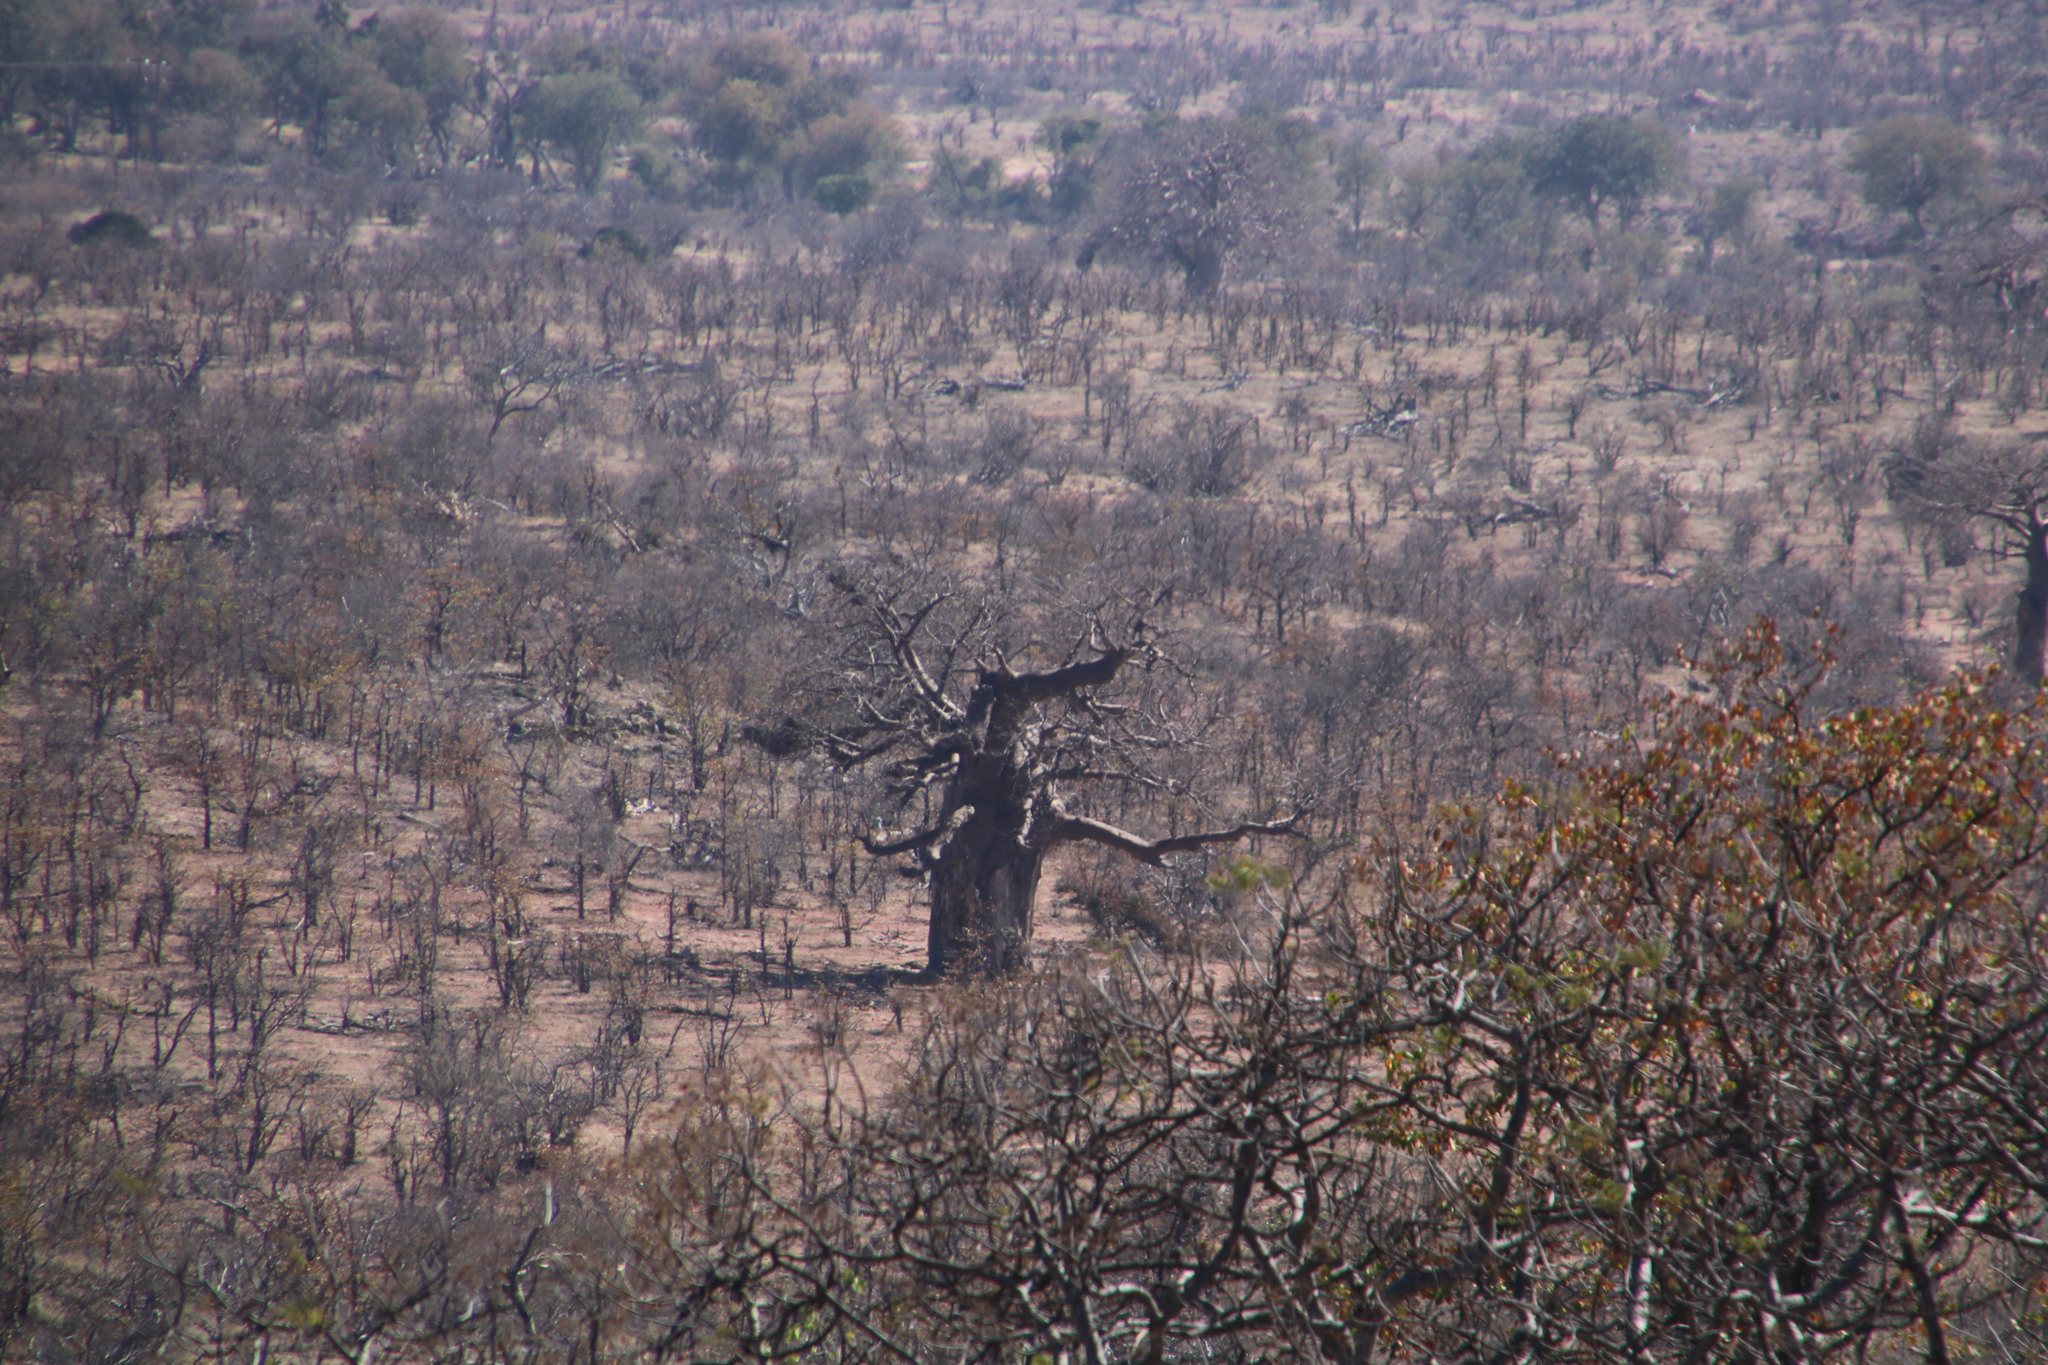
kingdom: Plantae
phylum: Tracheophyta
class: Magnoliopsida
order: Malvales
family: Malvaceae
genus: Adansonia
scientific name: Adansonia digitata
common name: Dead-rat-tree
